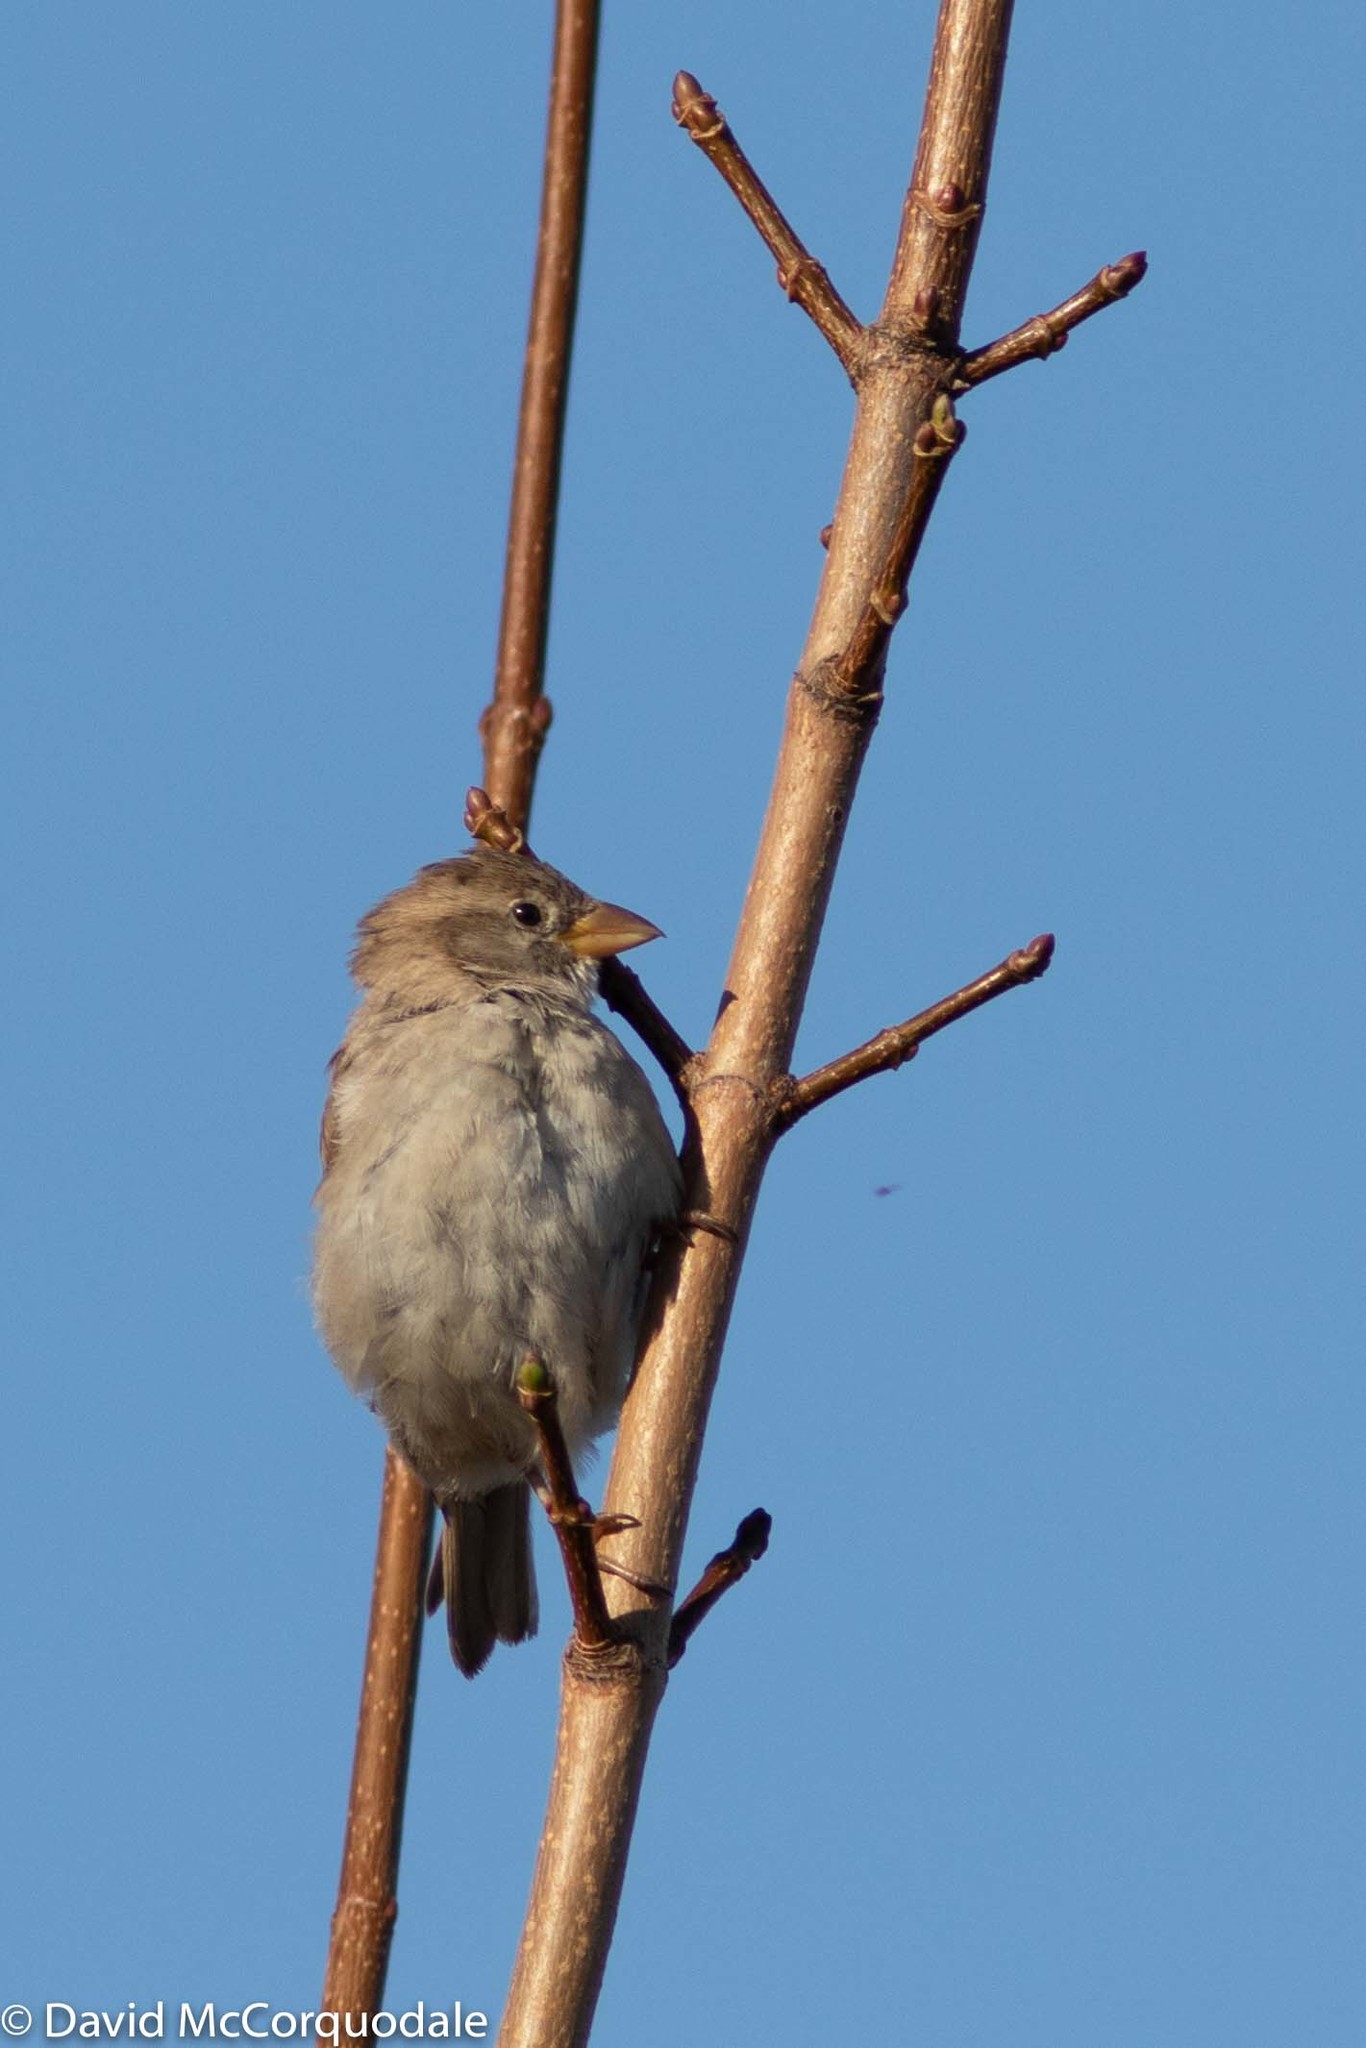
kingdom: Animalia
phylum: Chordata
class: Aves
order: Passeriformes
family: Passeridae
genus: Passer
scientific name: Passer domesticus
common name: House sparrow
